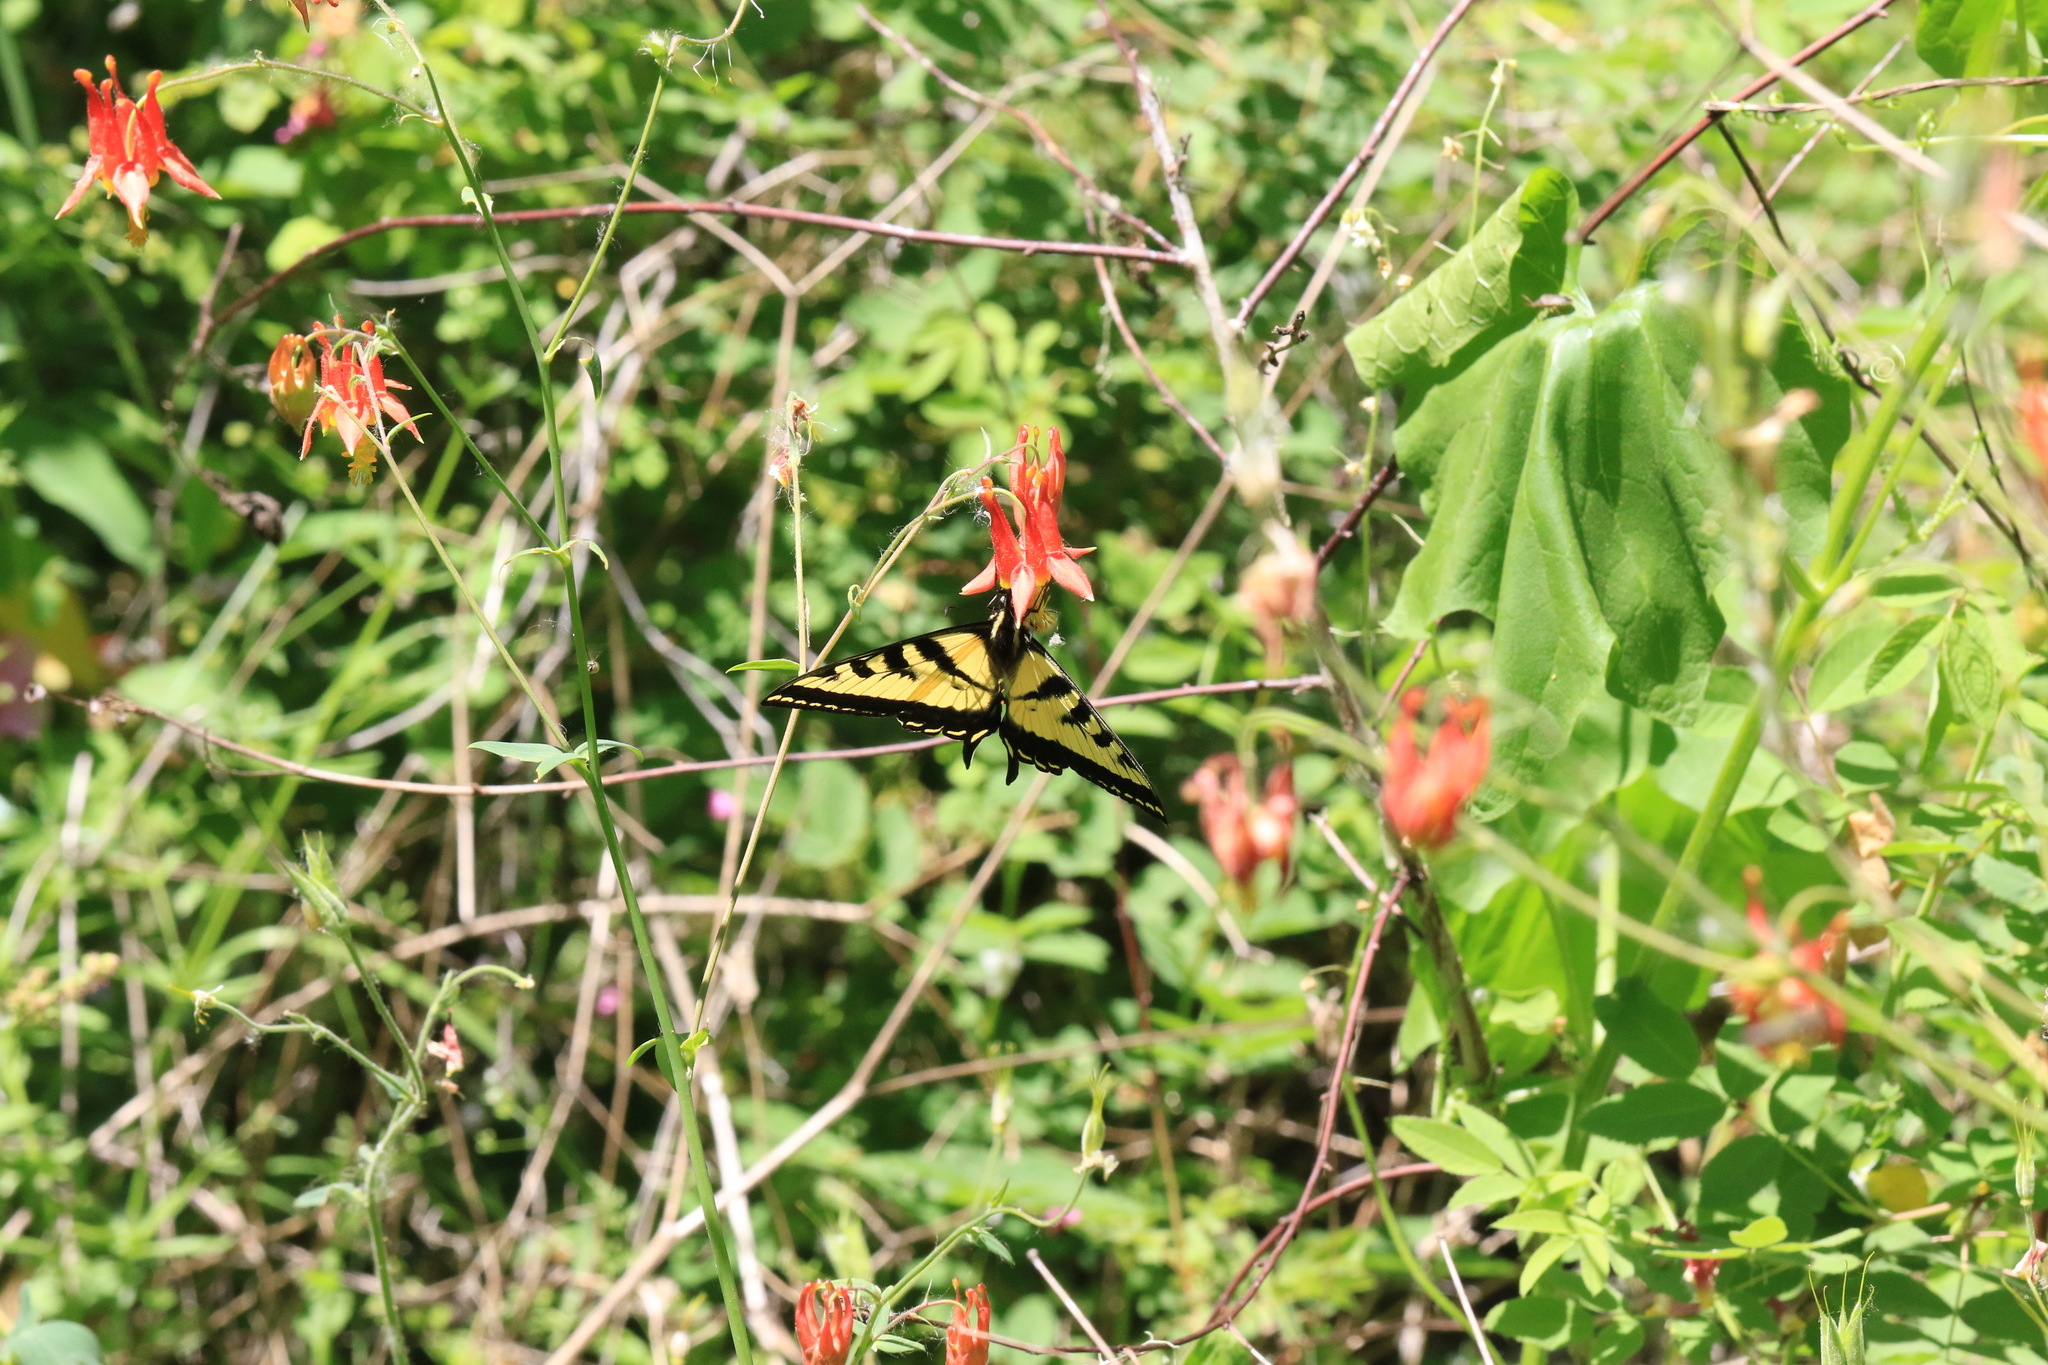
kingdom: Animalia
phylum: Arthropoda
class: Insecta
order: Lepidoptera
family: Papilionidae
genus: Papilio
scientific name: Papilio rutulus
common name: Western tiger swallowtail
